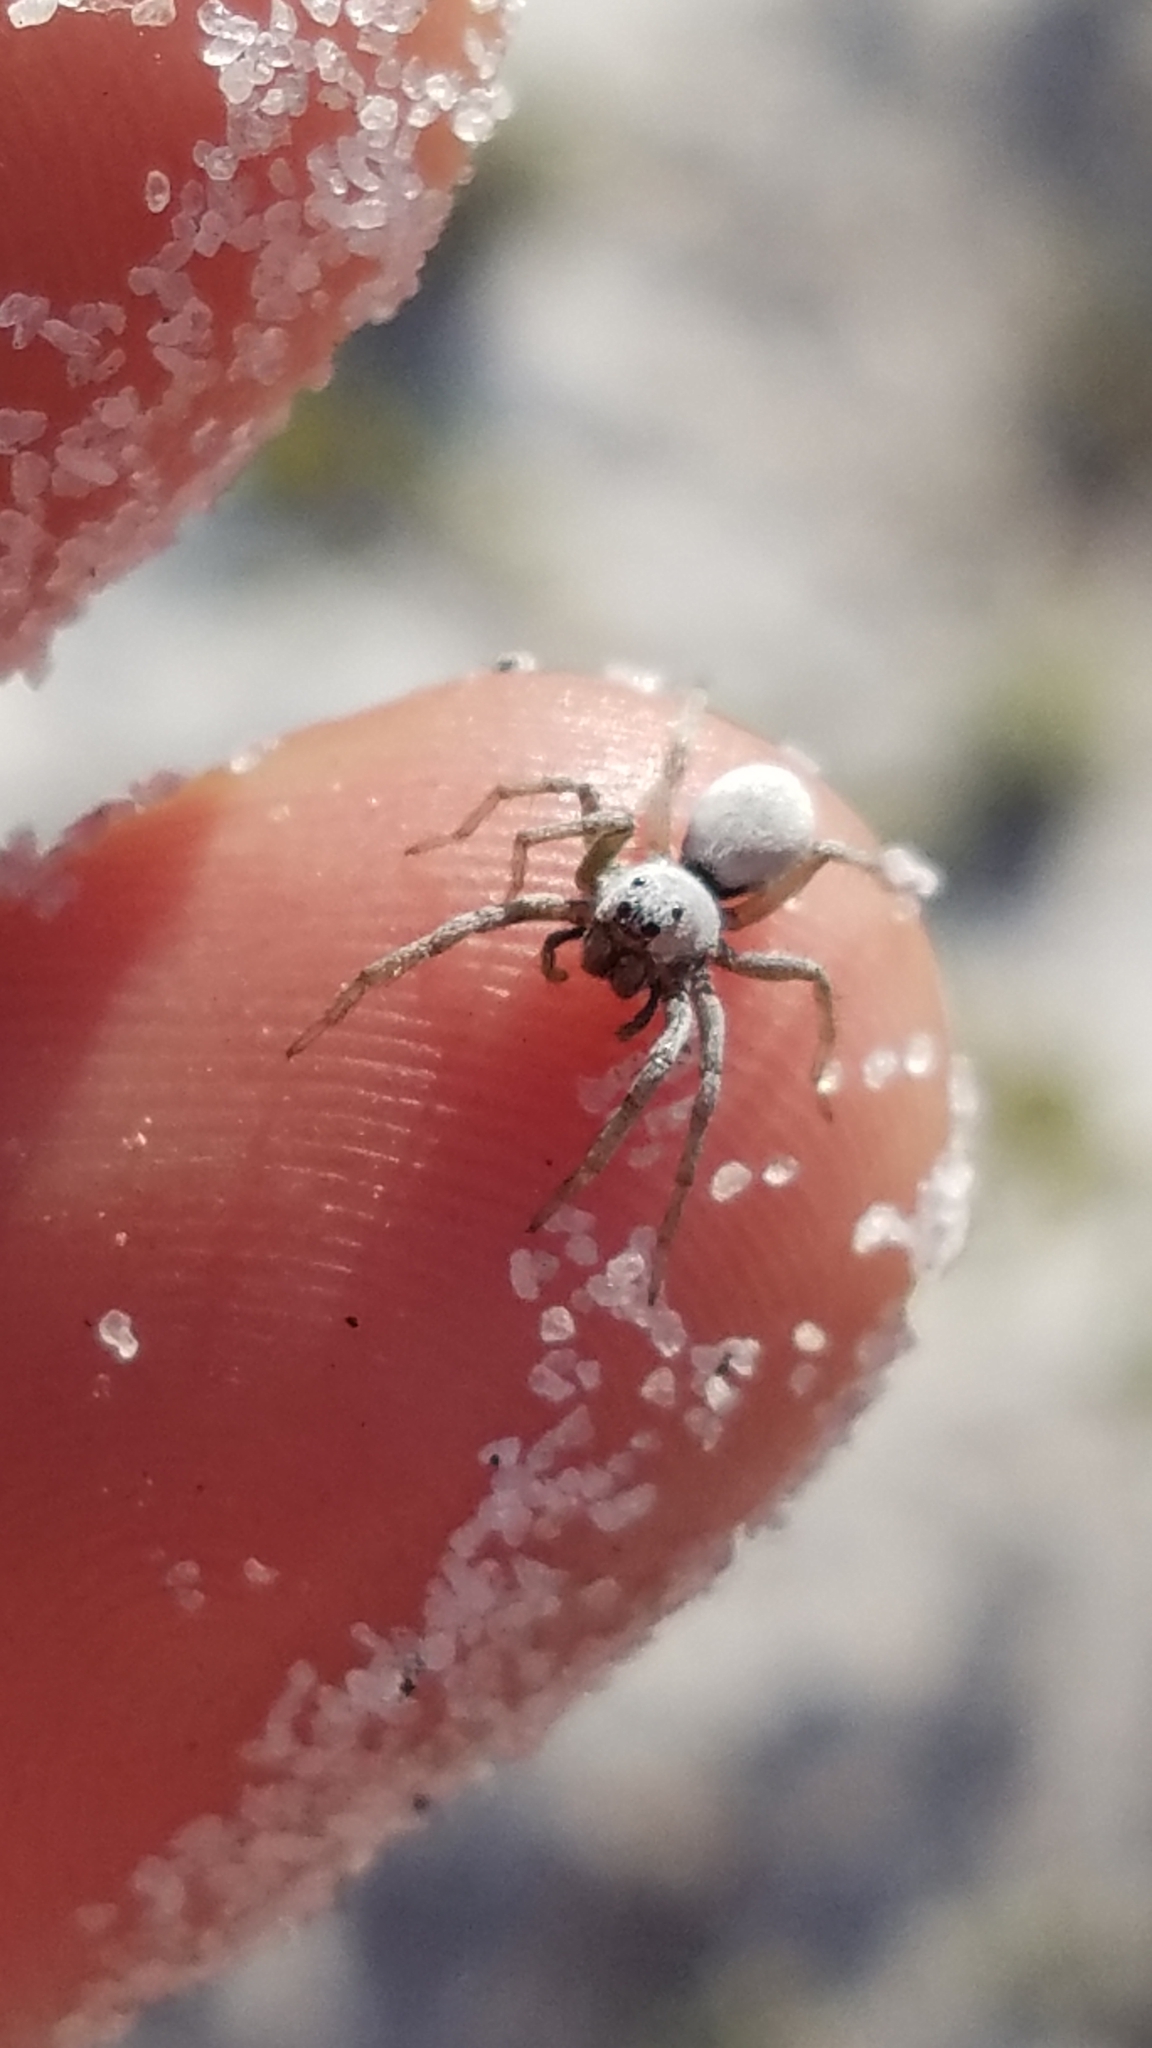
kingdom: Animalia
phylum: Arthropoda
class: Arachnida
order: Araneae
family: Lycosidae
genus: Geolycosa
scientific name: Geolycosa xera
